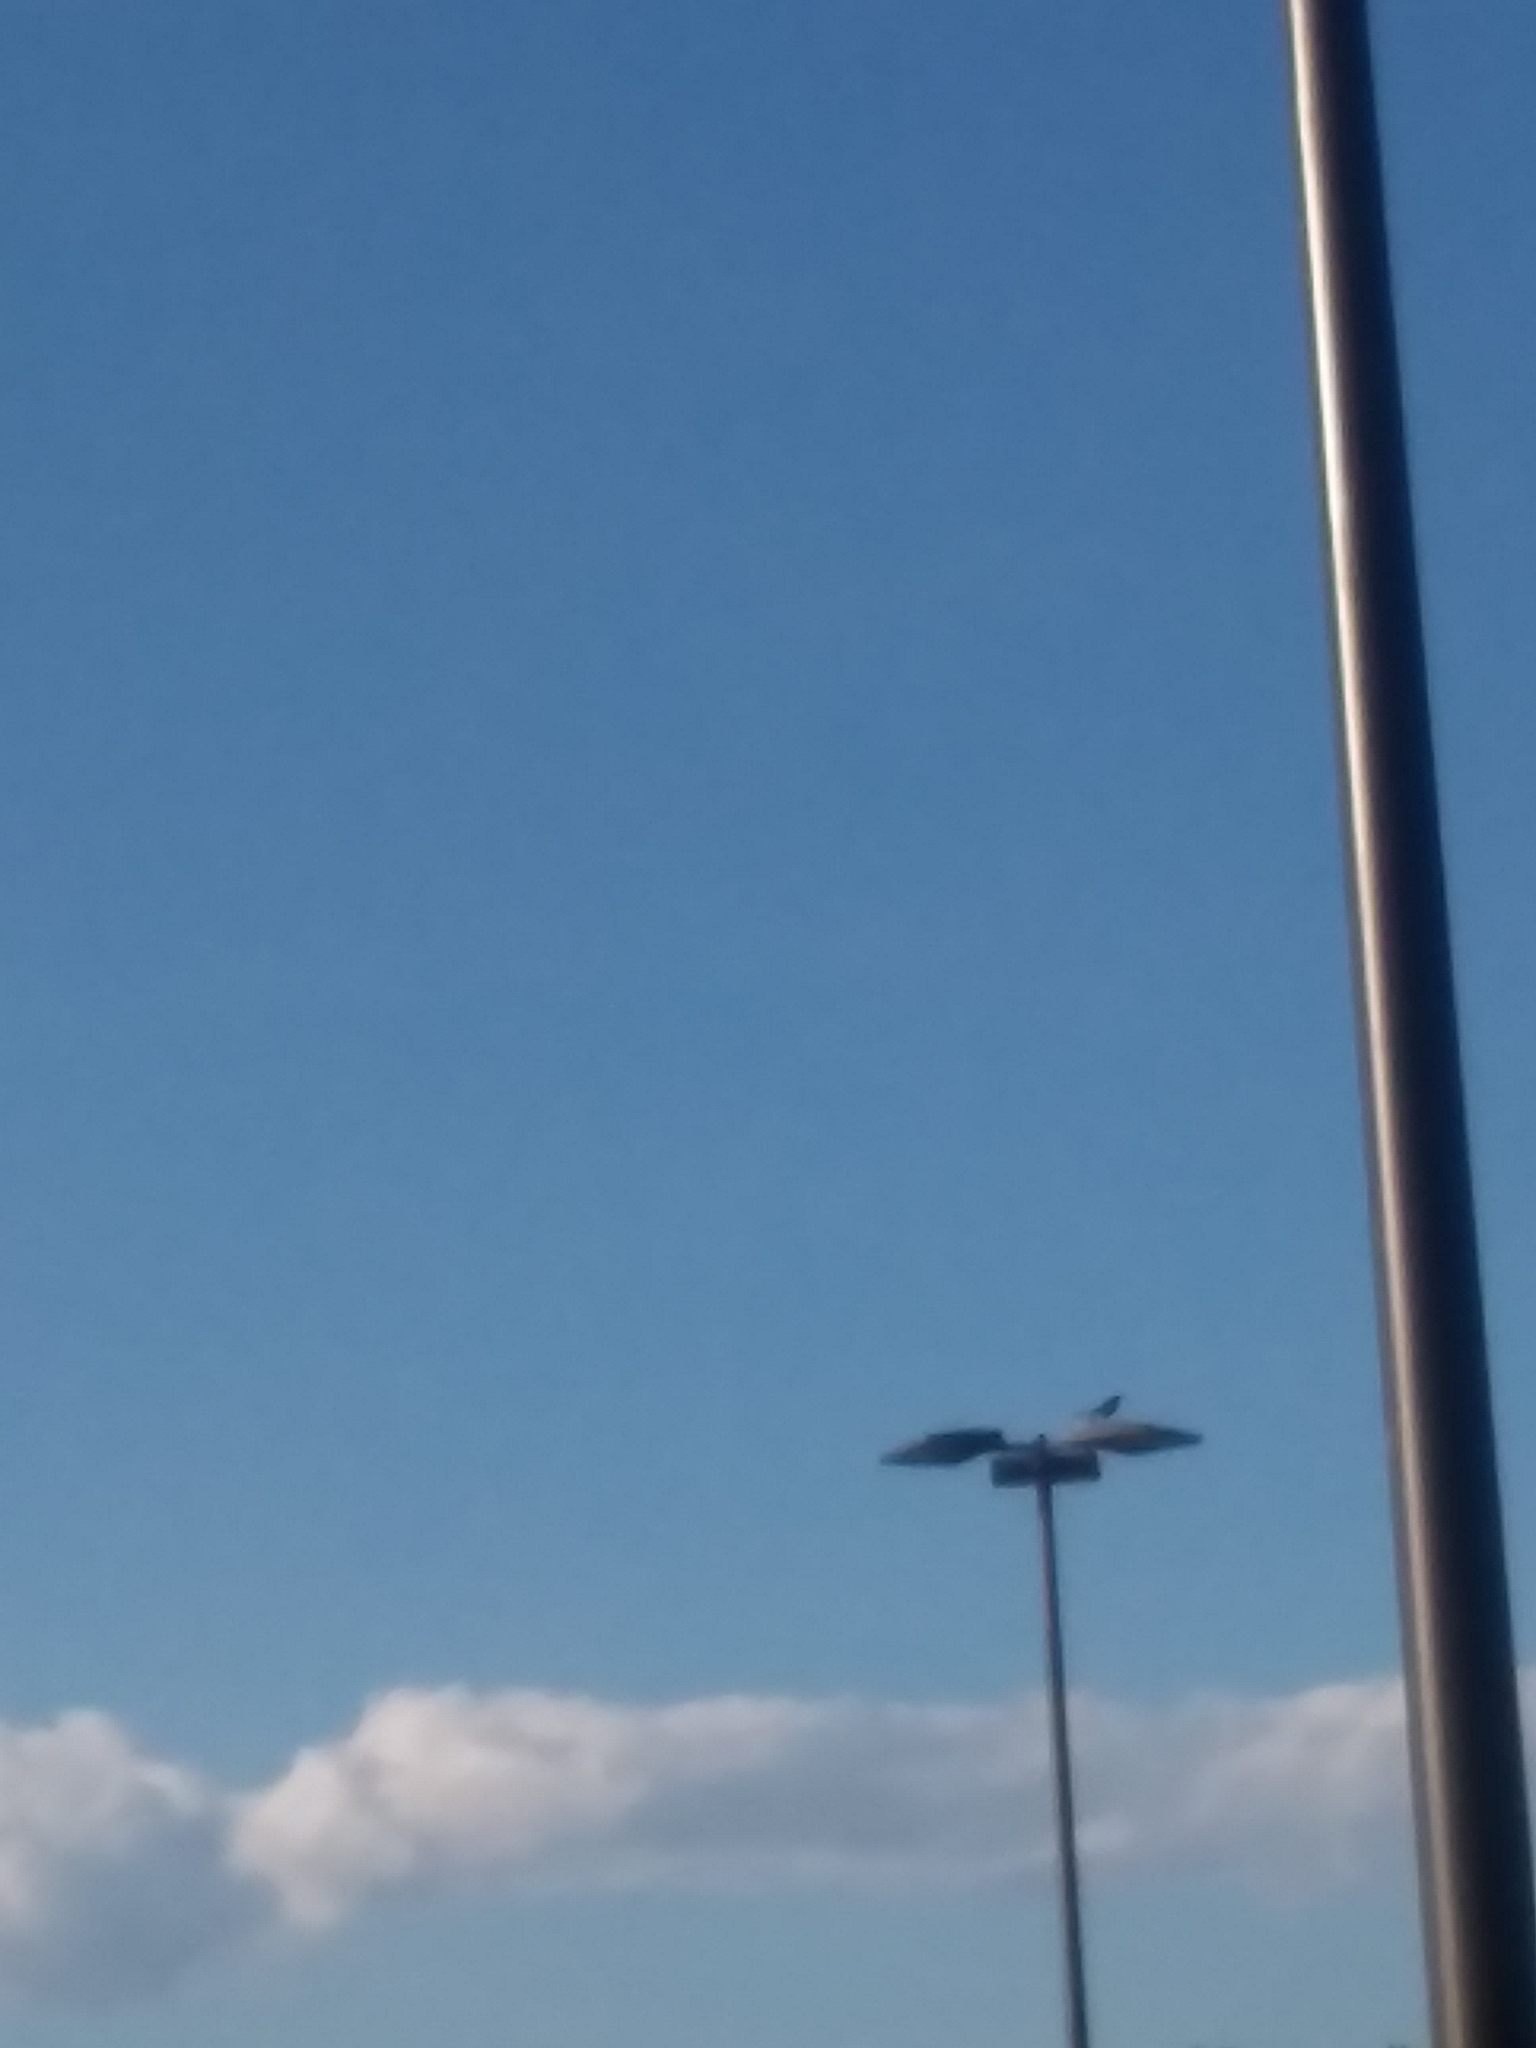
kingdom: Animalia
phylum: Chordata
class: Aves
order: Passeriformes
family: Icteridae
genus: Quiscalus
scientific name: Quiscalus major
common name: Boat-tailed grackle
